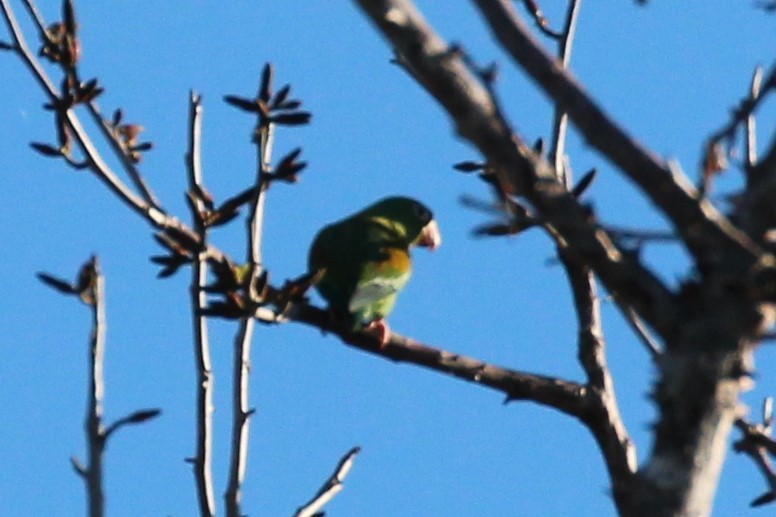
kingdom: Animalia
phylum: Chordata
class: Aves
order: Psittaciformes
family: Psittacidae
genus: Brotogeris
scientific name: Brotogeris jugularis
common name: Orange-chinned parakeet
